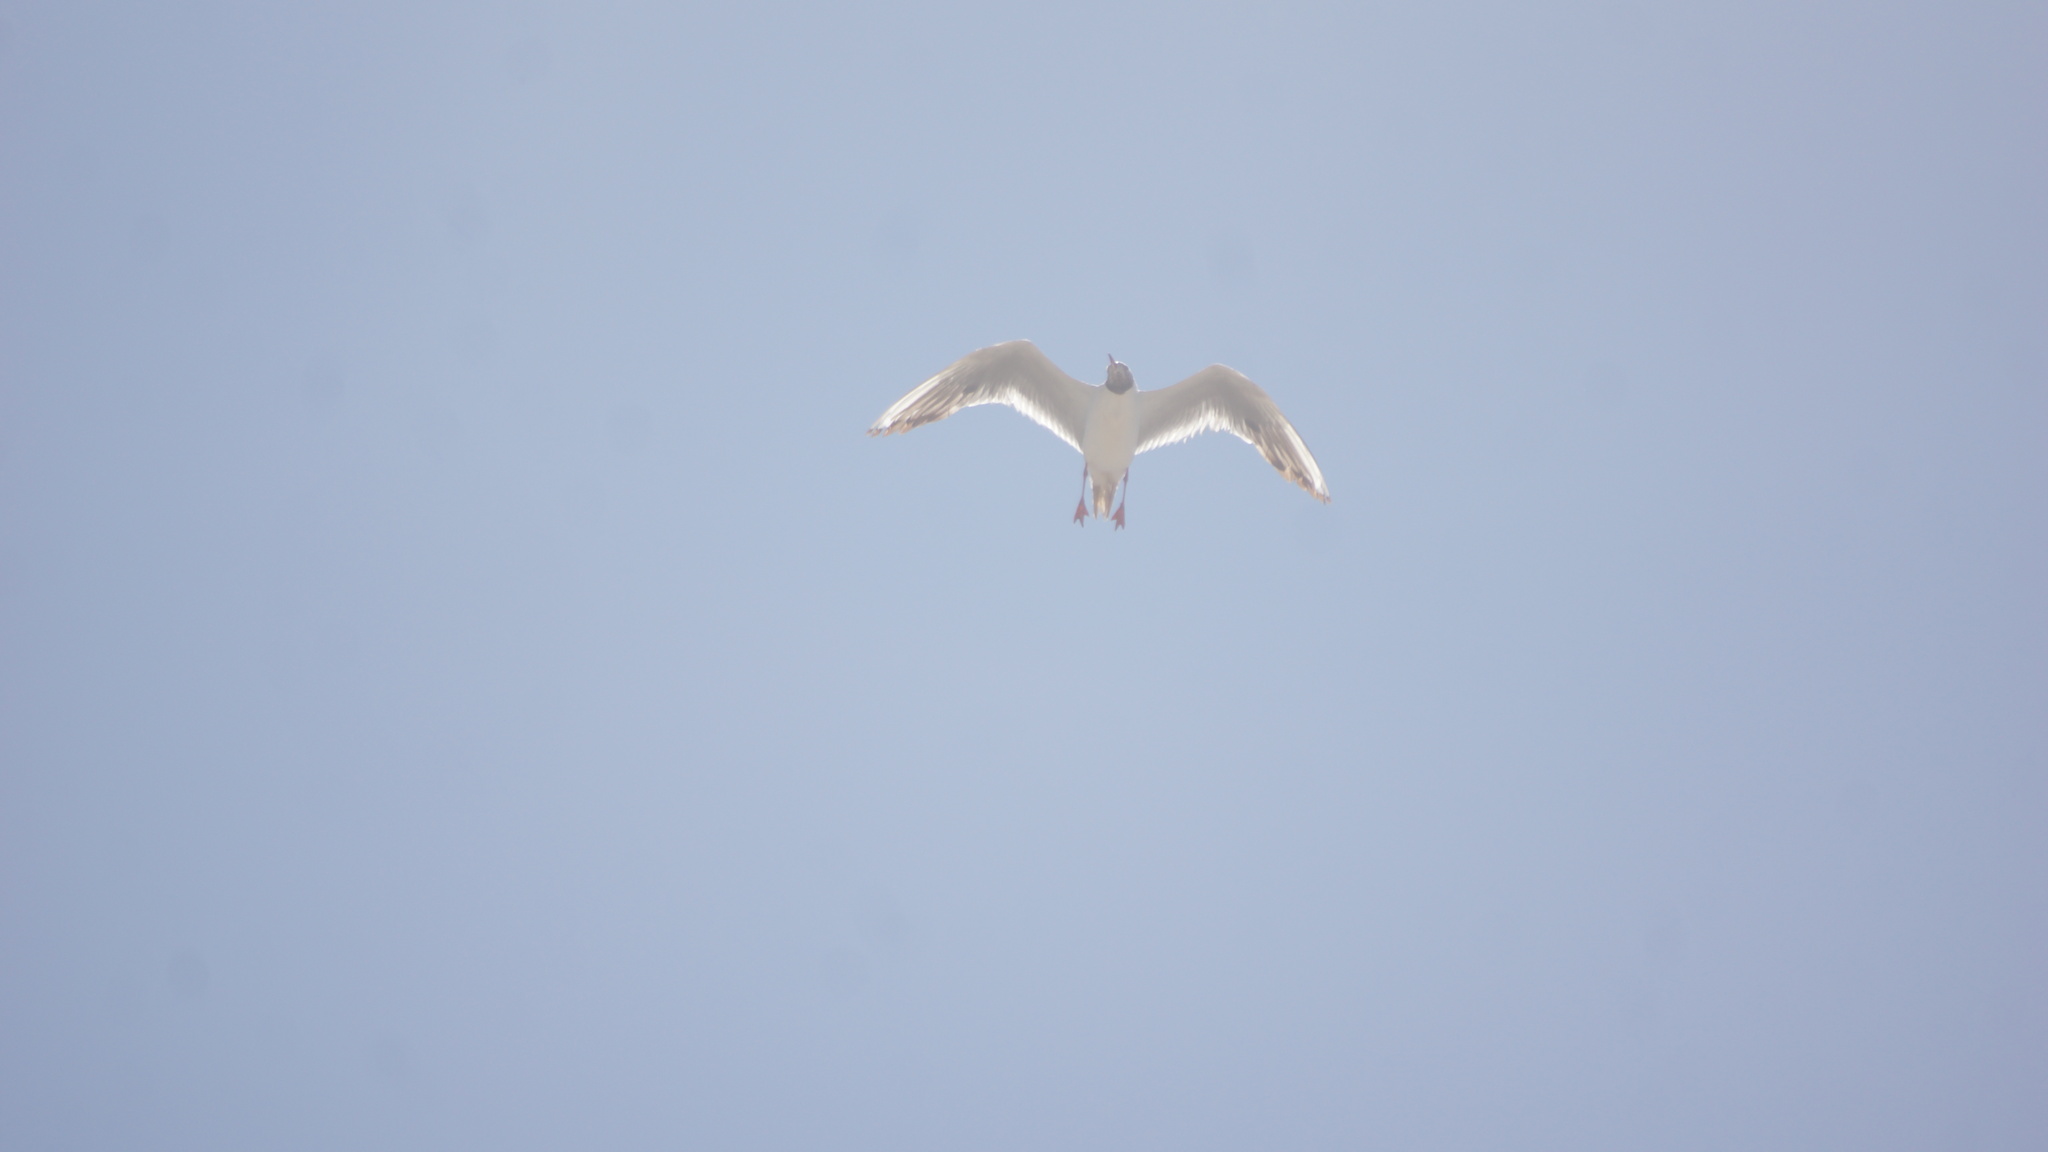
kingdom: Animalia
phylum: Chordata
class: Aves
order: Charadriiformes
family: Laridae
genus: Chroicocephalus
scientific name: Chroicocephalus ridibundus
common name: Black-headed gull
